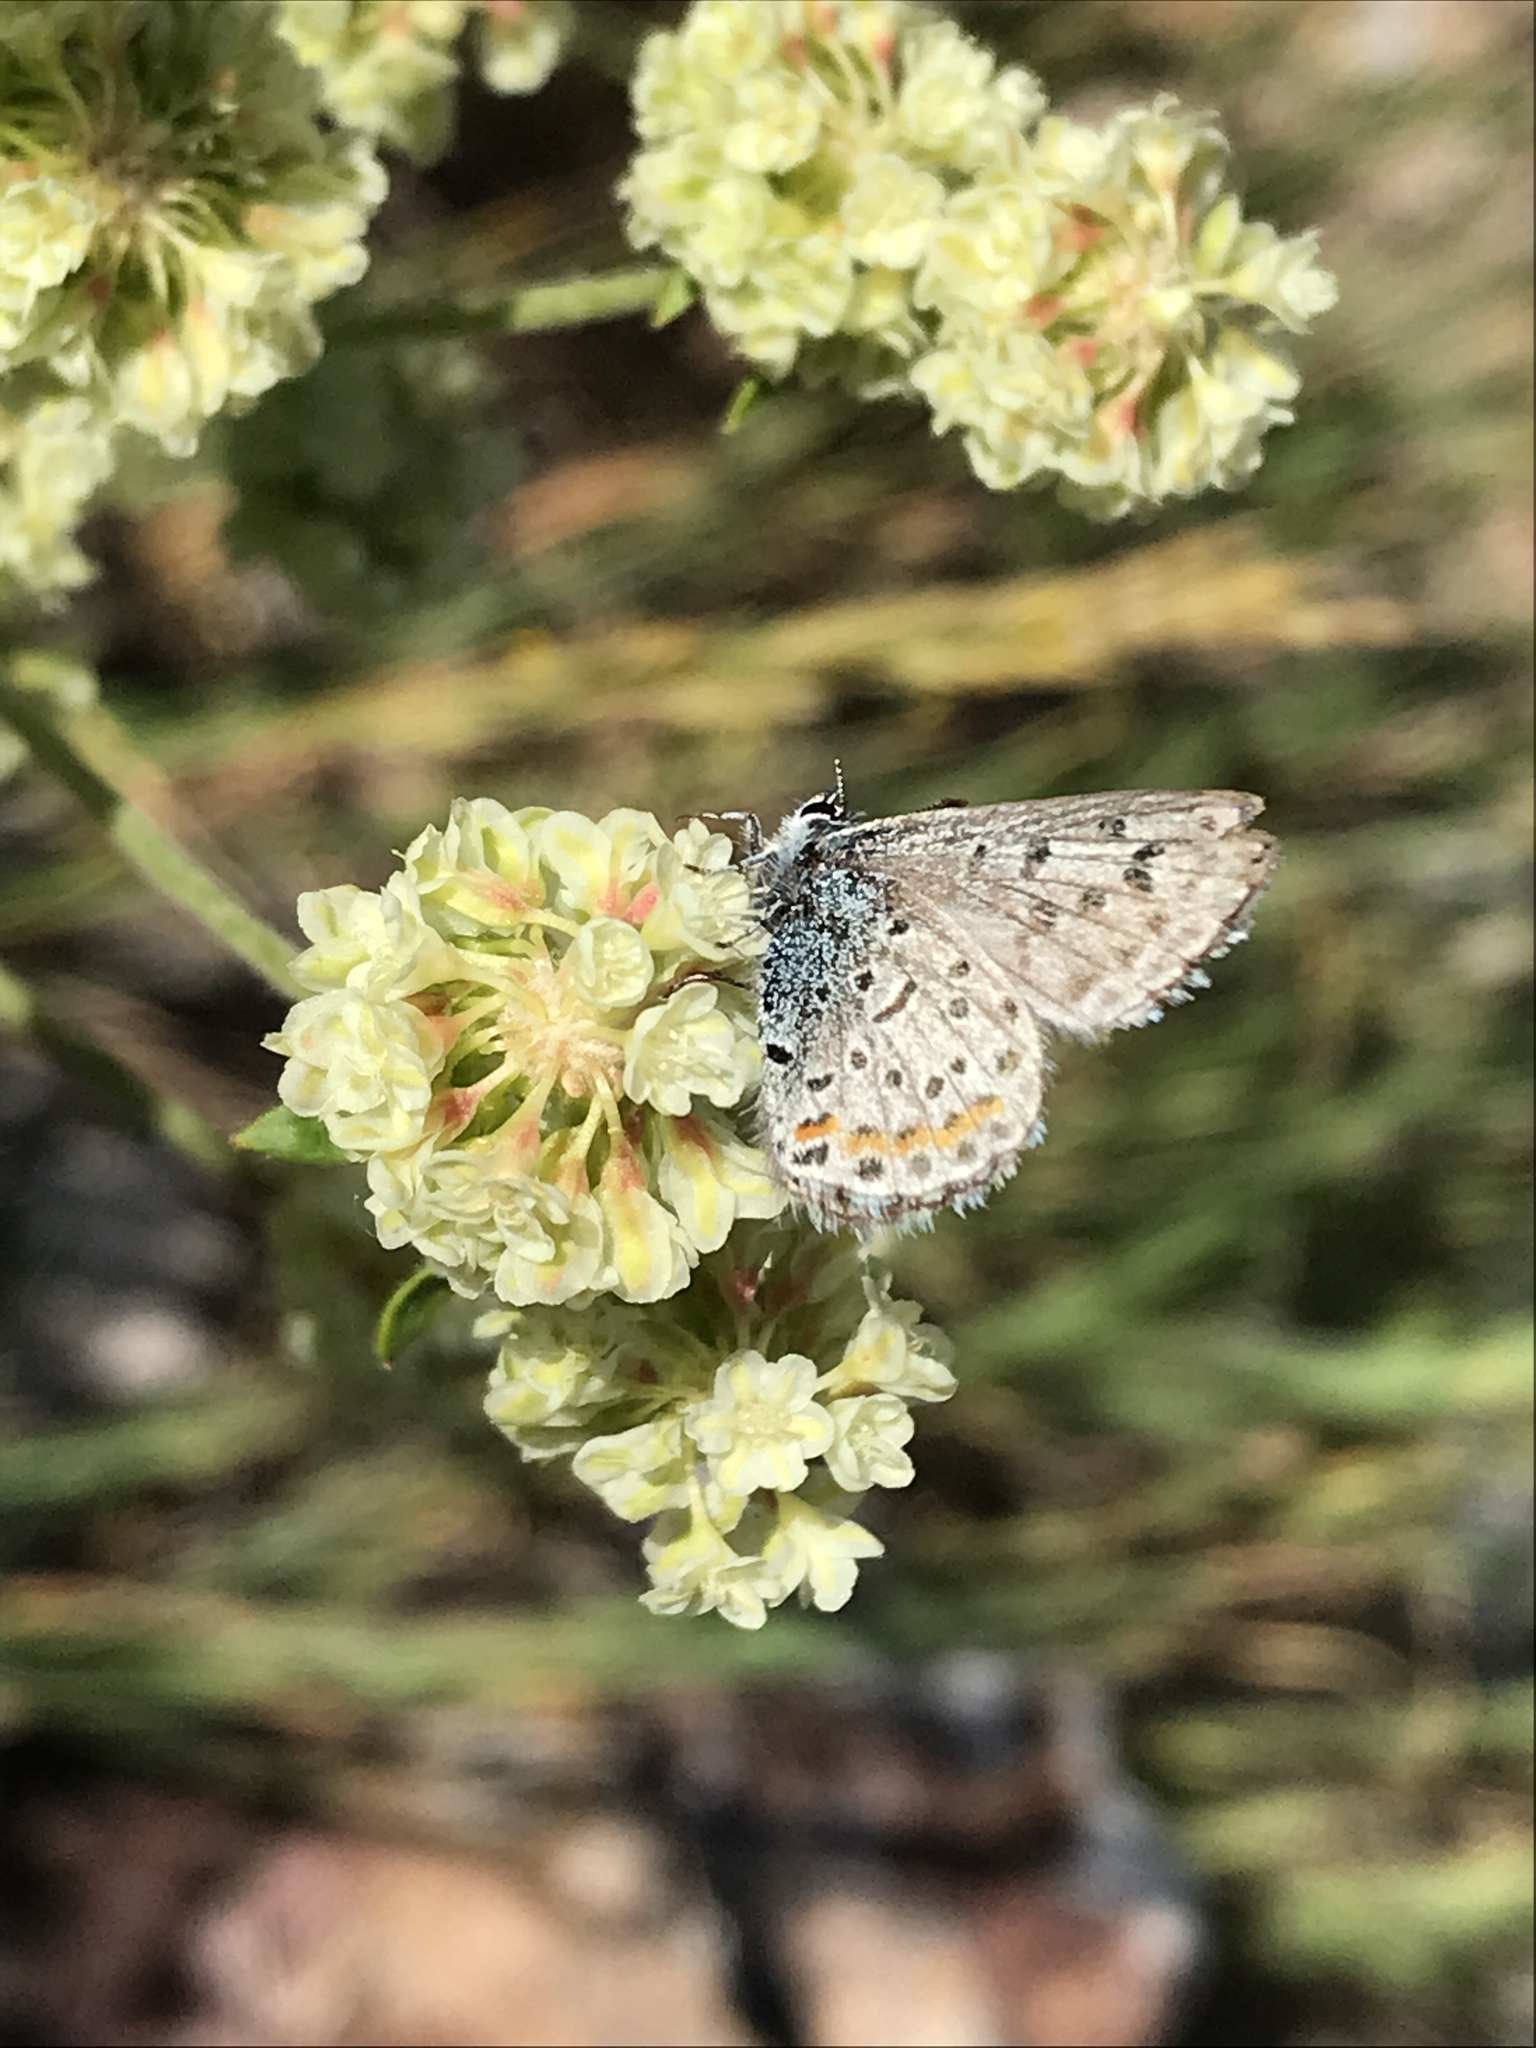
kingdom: Animalia
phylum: Arthropoda
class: Insecta
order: Lepidoptera
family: Lycaenidae
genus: Euphilotes
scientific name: Euphilotes enoptes
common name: Dotted blue
